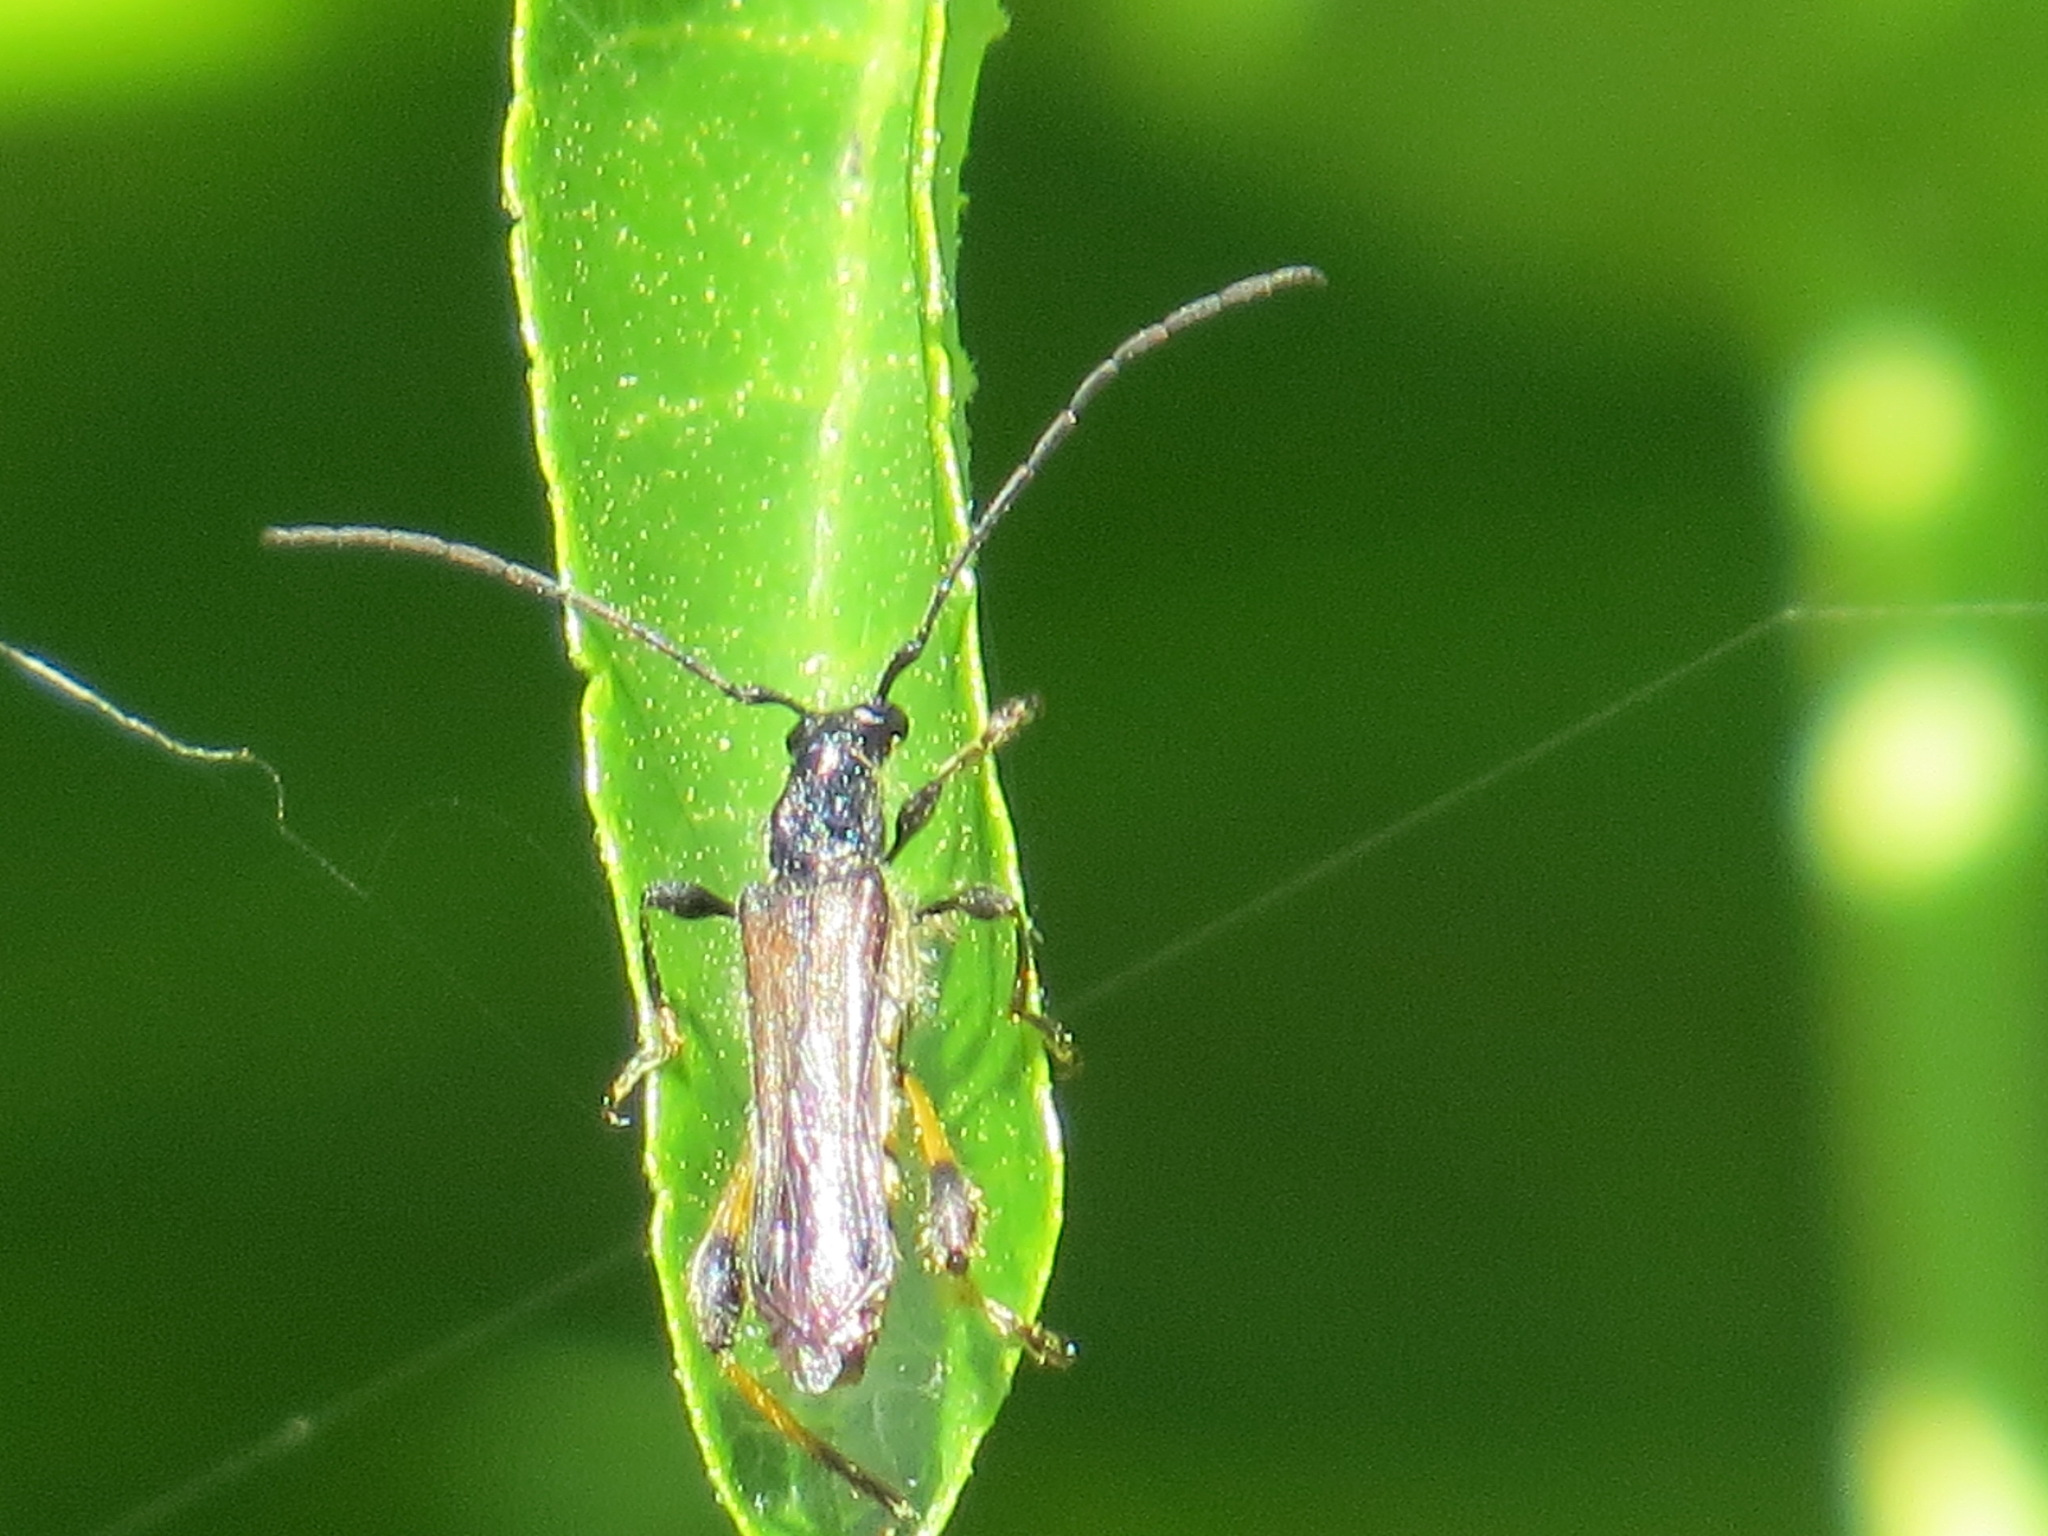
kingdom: Animalia
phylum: Arthropoda
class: Insecta
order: Coleoptera
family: Cerambycidae
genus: Callimoxys
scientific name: Callimoxys fuscipennis
